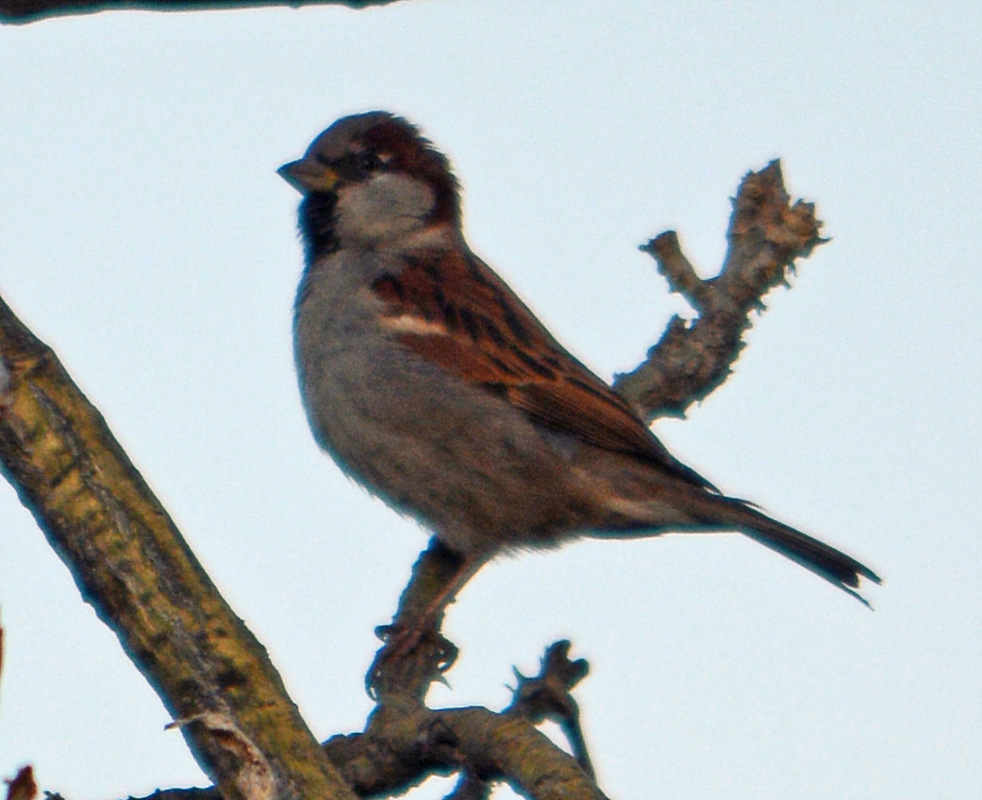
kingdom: Animalia
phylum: Chordata
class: Aves
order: Passeriformes
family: Passeridae
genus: Passer
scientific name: Passer domesticus
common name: House sparrow
